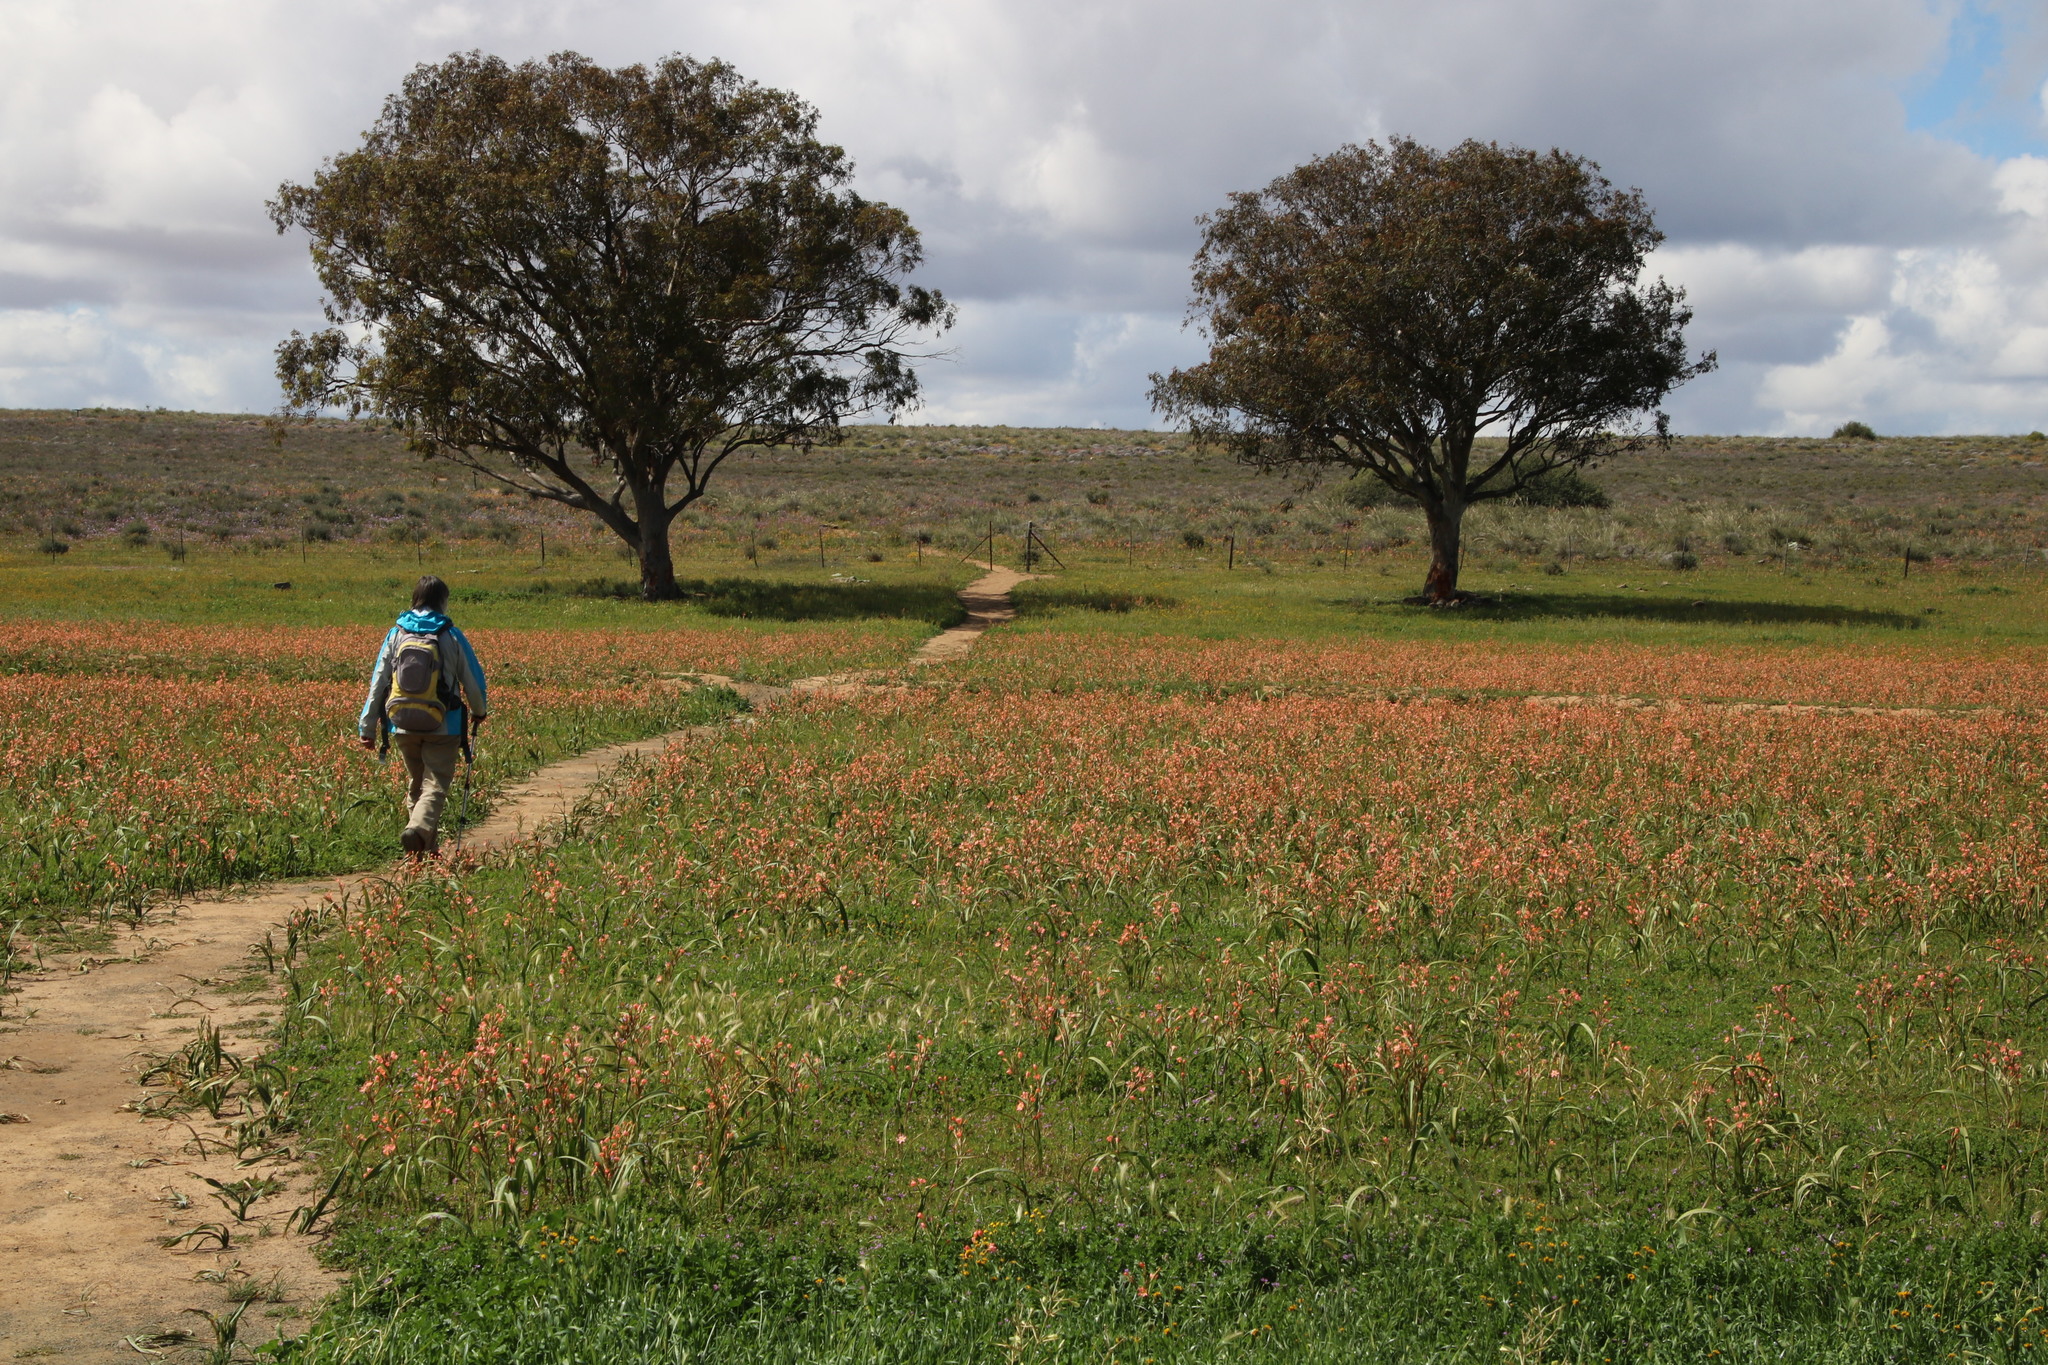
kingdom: Plantae
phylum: Tracheophyta
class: Liliopsida
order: Asparagales
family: Iridaceae
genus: Moraea
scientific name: Moraea miniata
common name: Two-leaf cape-tulip
